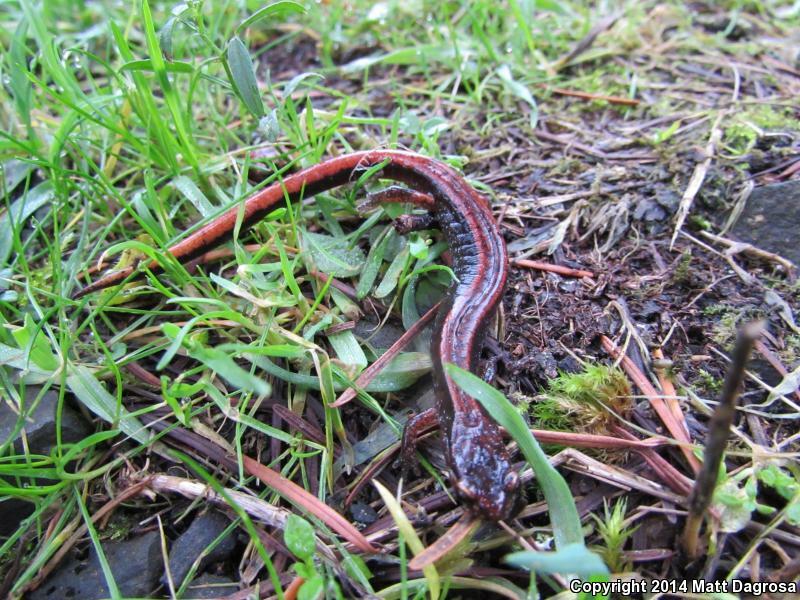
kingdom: Animalia
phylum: Chordata
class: Amphibia
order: Caudata
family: Plethodontidae
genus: Plethodon
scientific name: Plethodon vehiculum
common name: Western red-backed salamander
